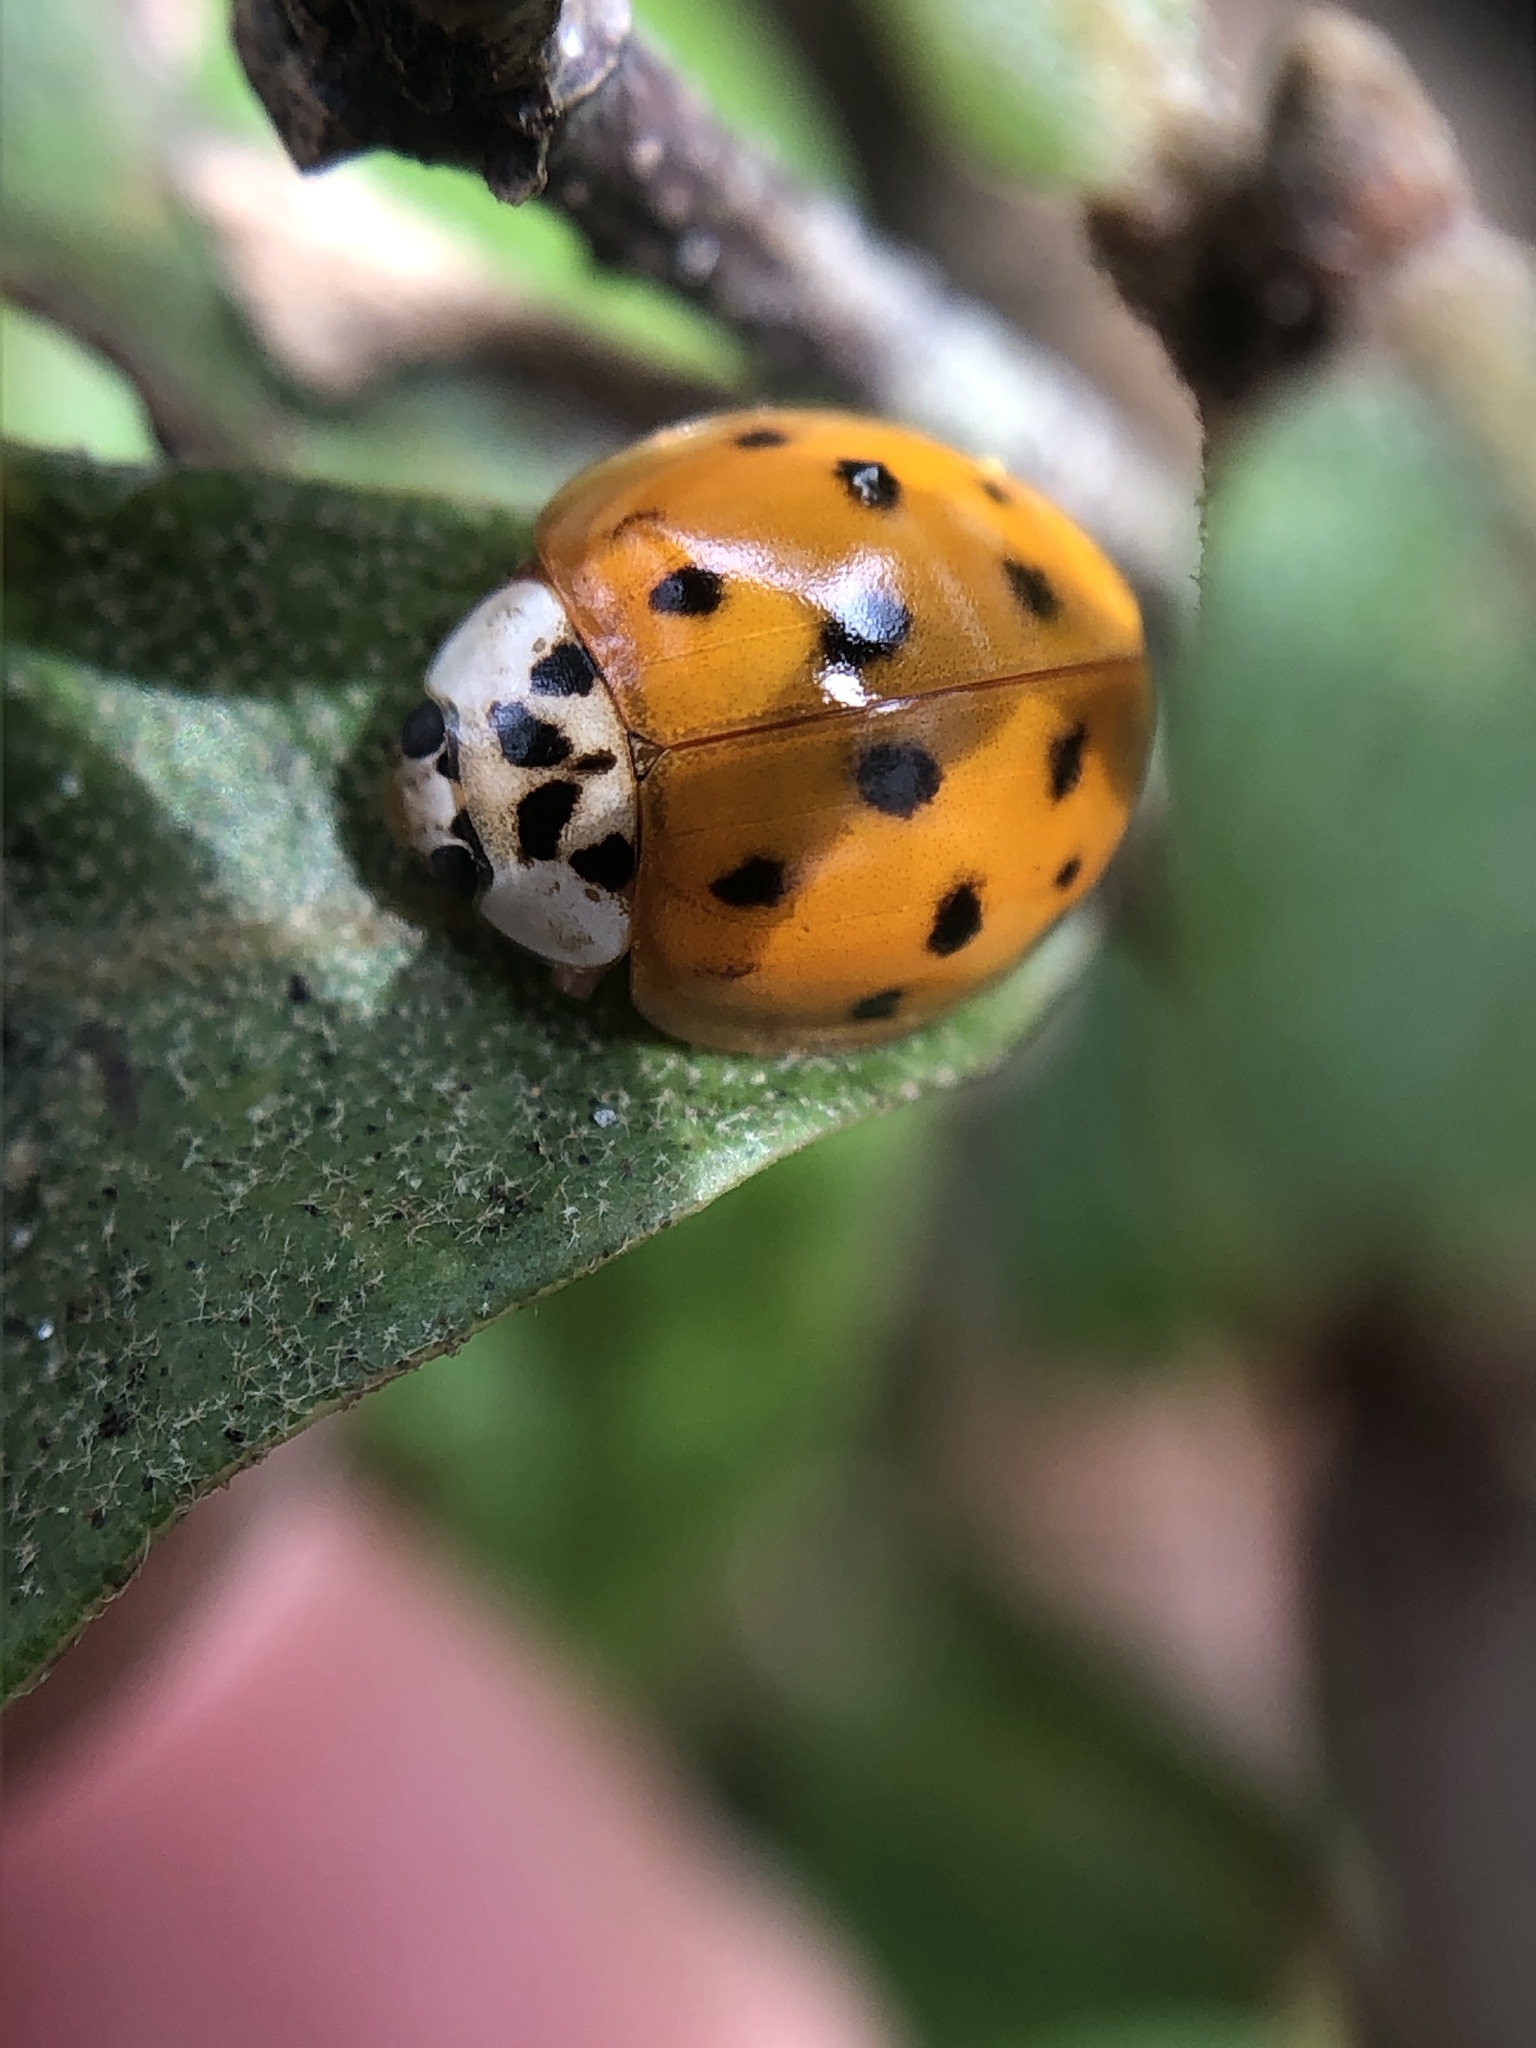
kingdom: Animalia
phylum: Arthropoda
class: Insecta
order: Coleoptera
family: Coccinellidae
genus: Harmonia
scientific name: Harmonia axyridis
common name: Harlequin ladybird
